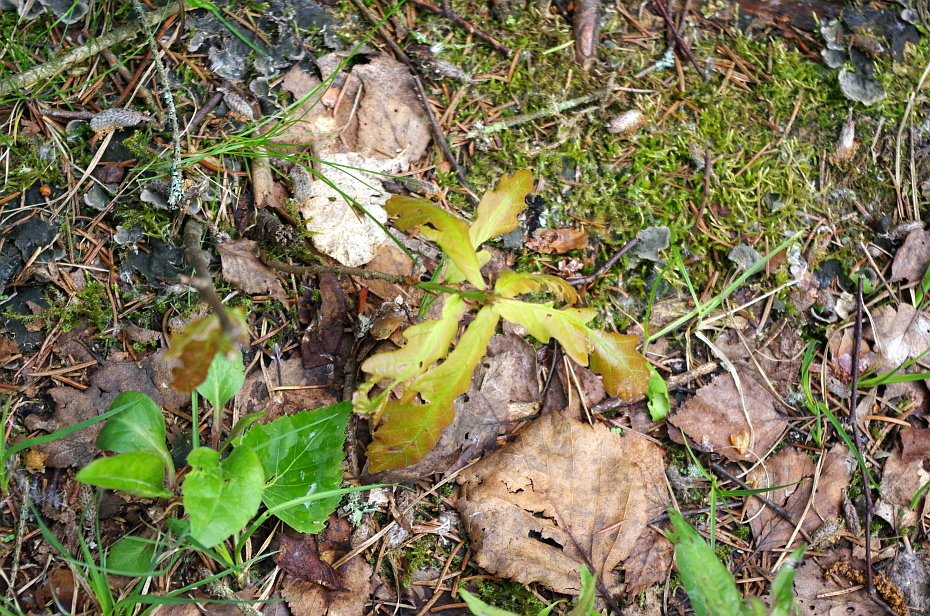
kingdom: Plantae
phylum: Tracheophyta
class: Magnoliopsida
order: Fagales
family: Fagaceae
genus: Quercus
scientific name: Quercus robur
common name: Pedunculate oak
